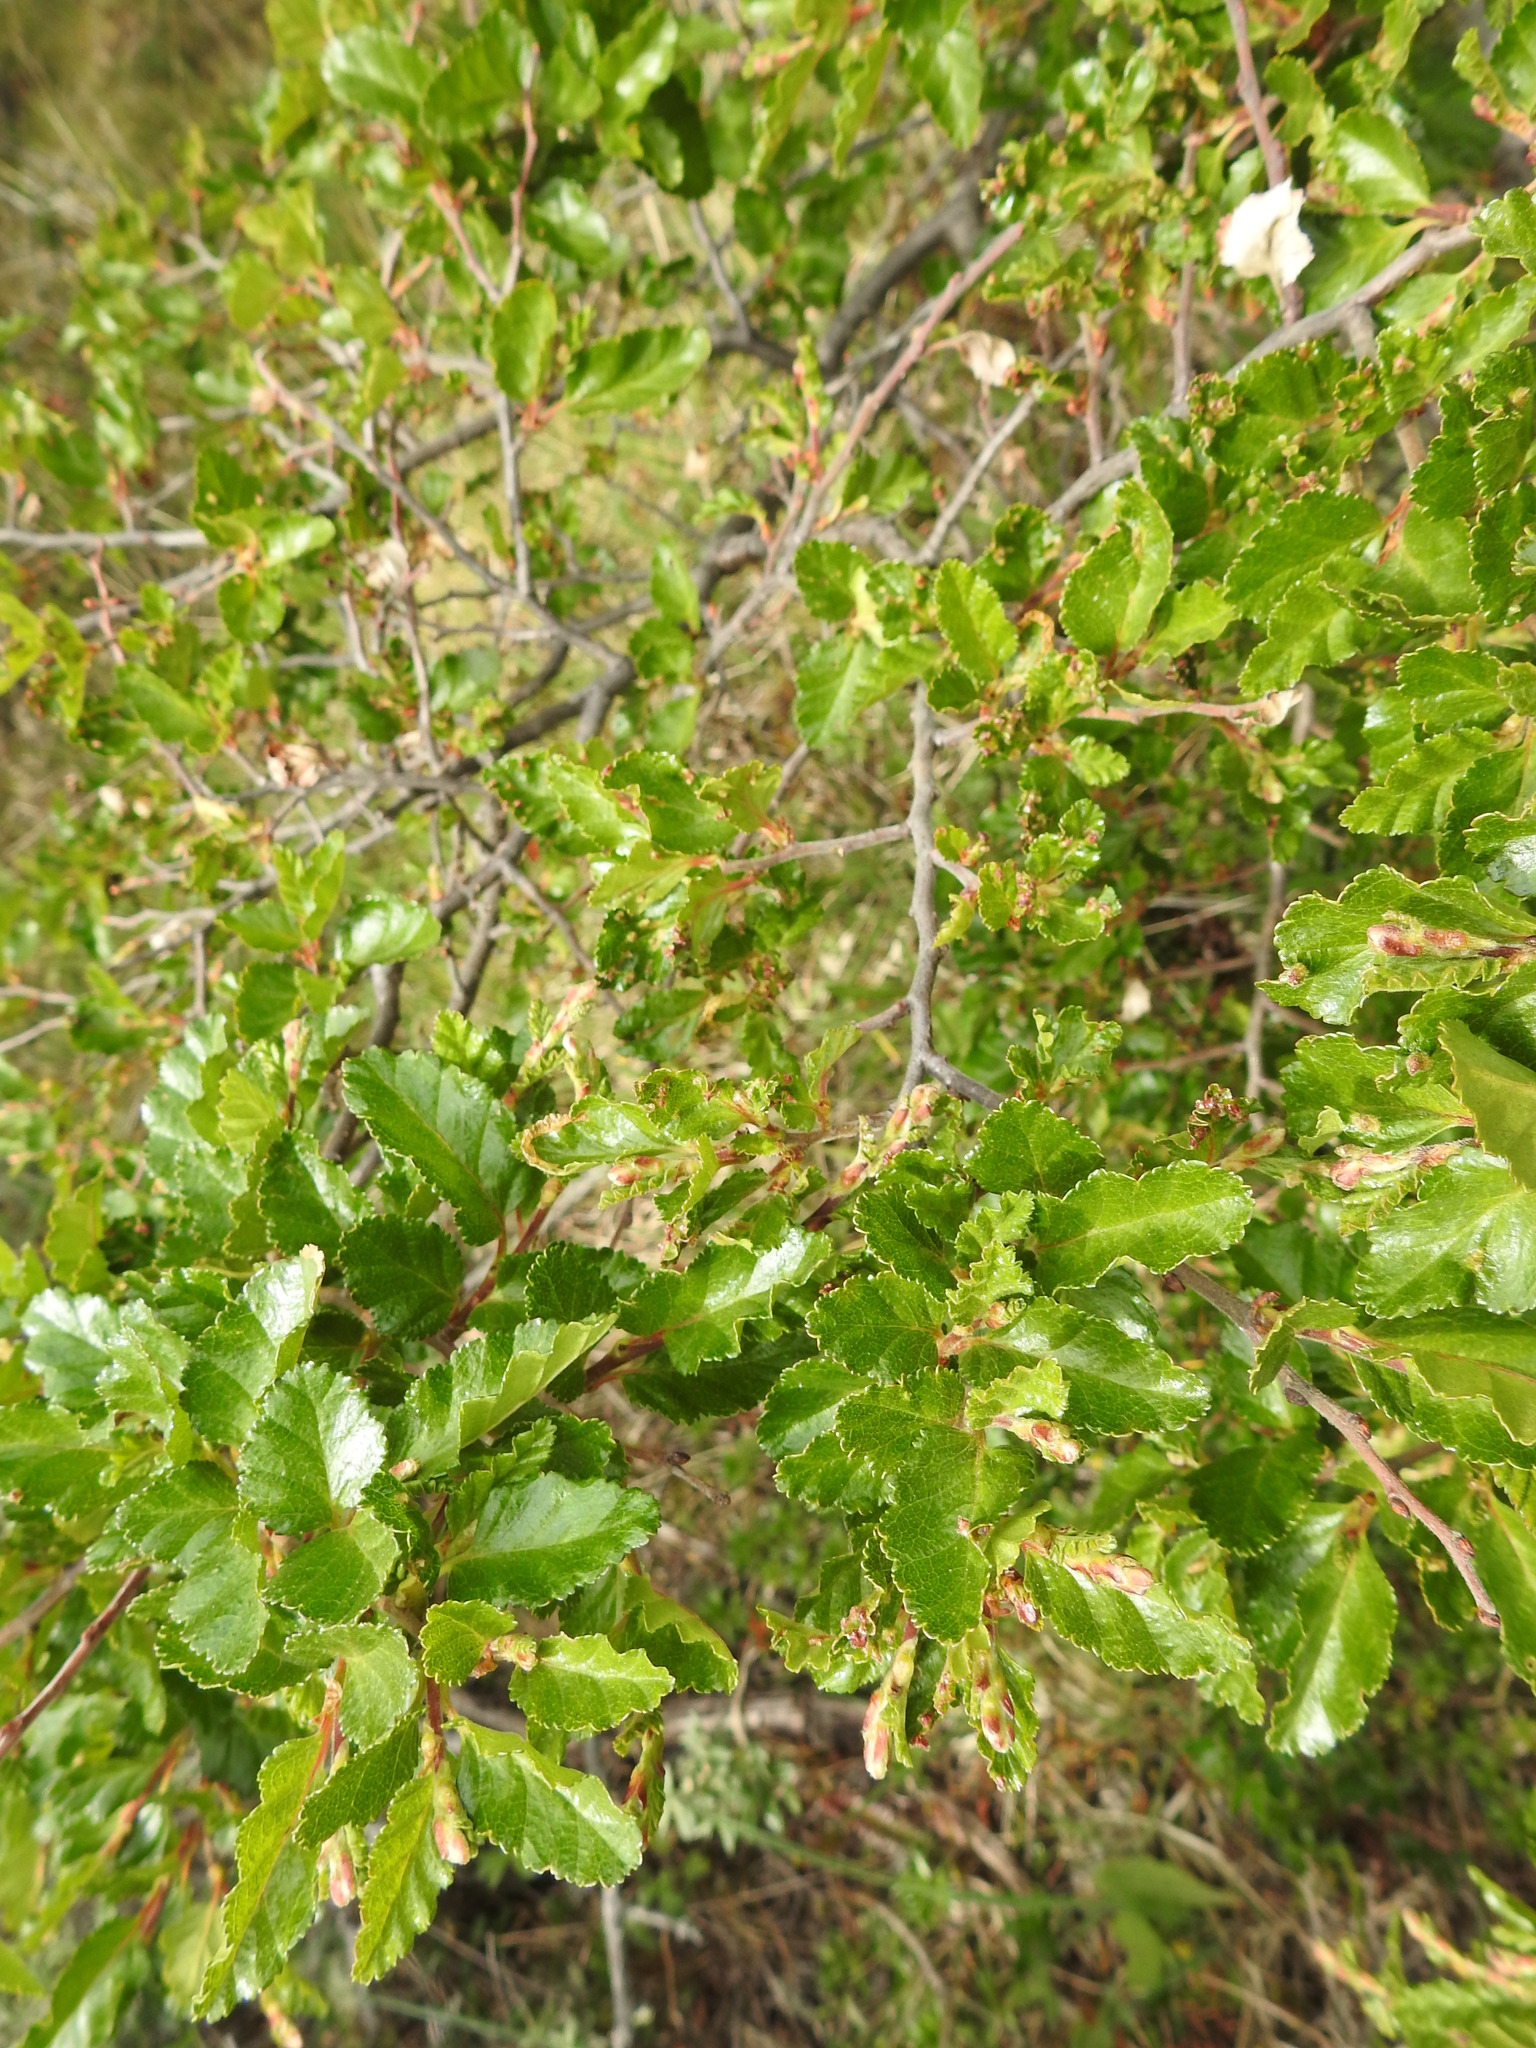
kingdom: Plantae
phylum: Tracheophyta
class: Magnoliopsida
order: Fagales
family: Nothofagaceae
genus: Nothofagus
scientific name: Nothofagus antarctica
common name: Antarctic beech
